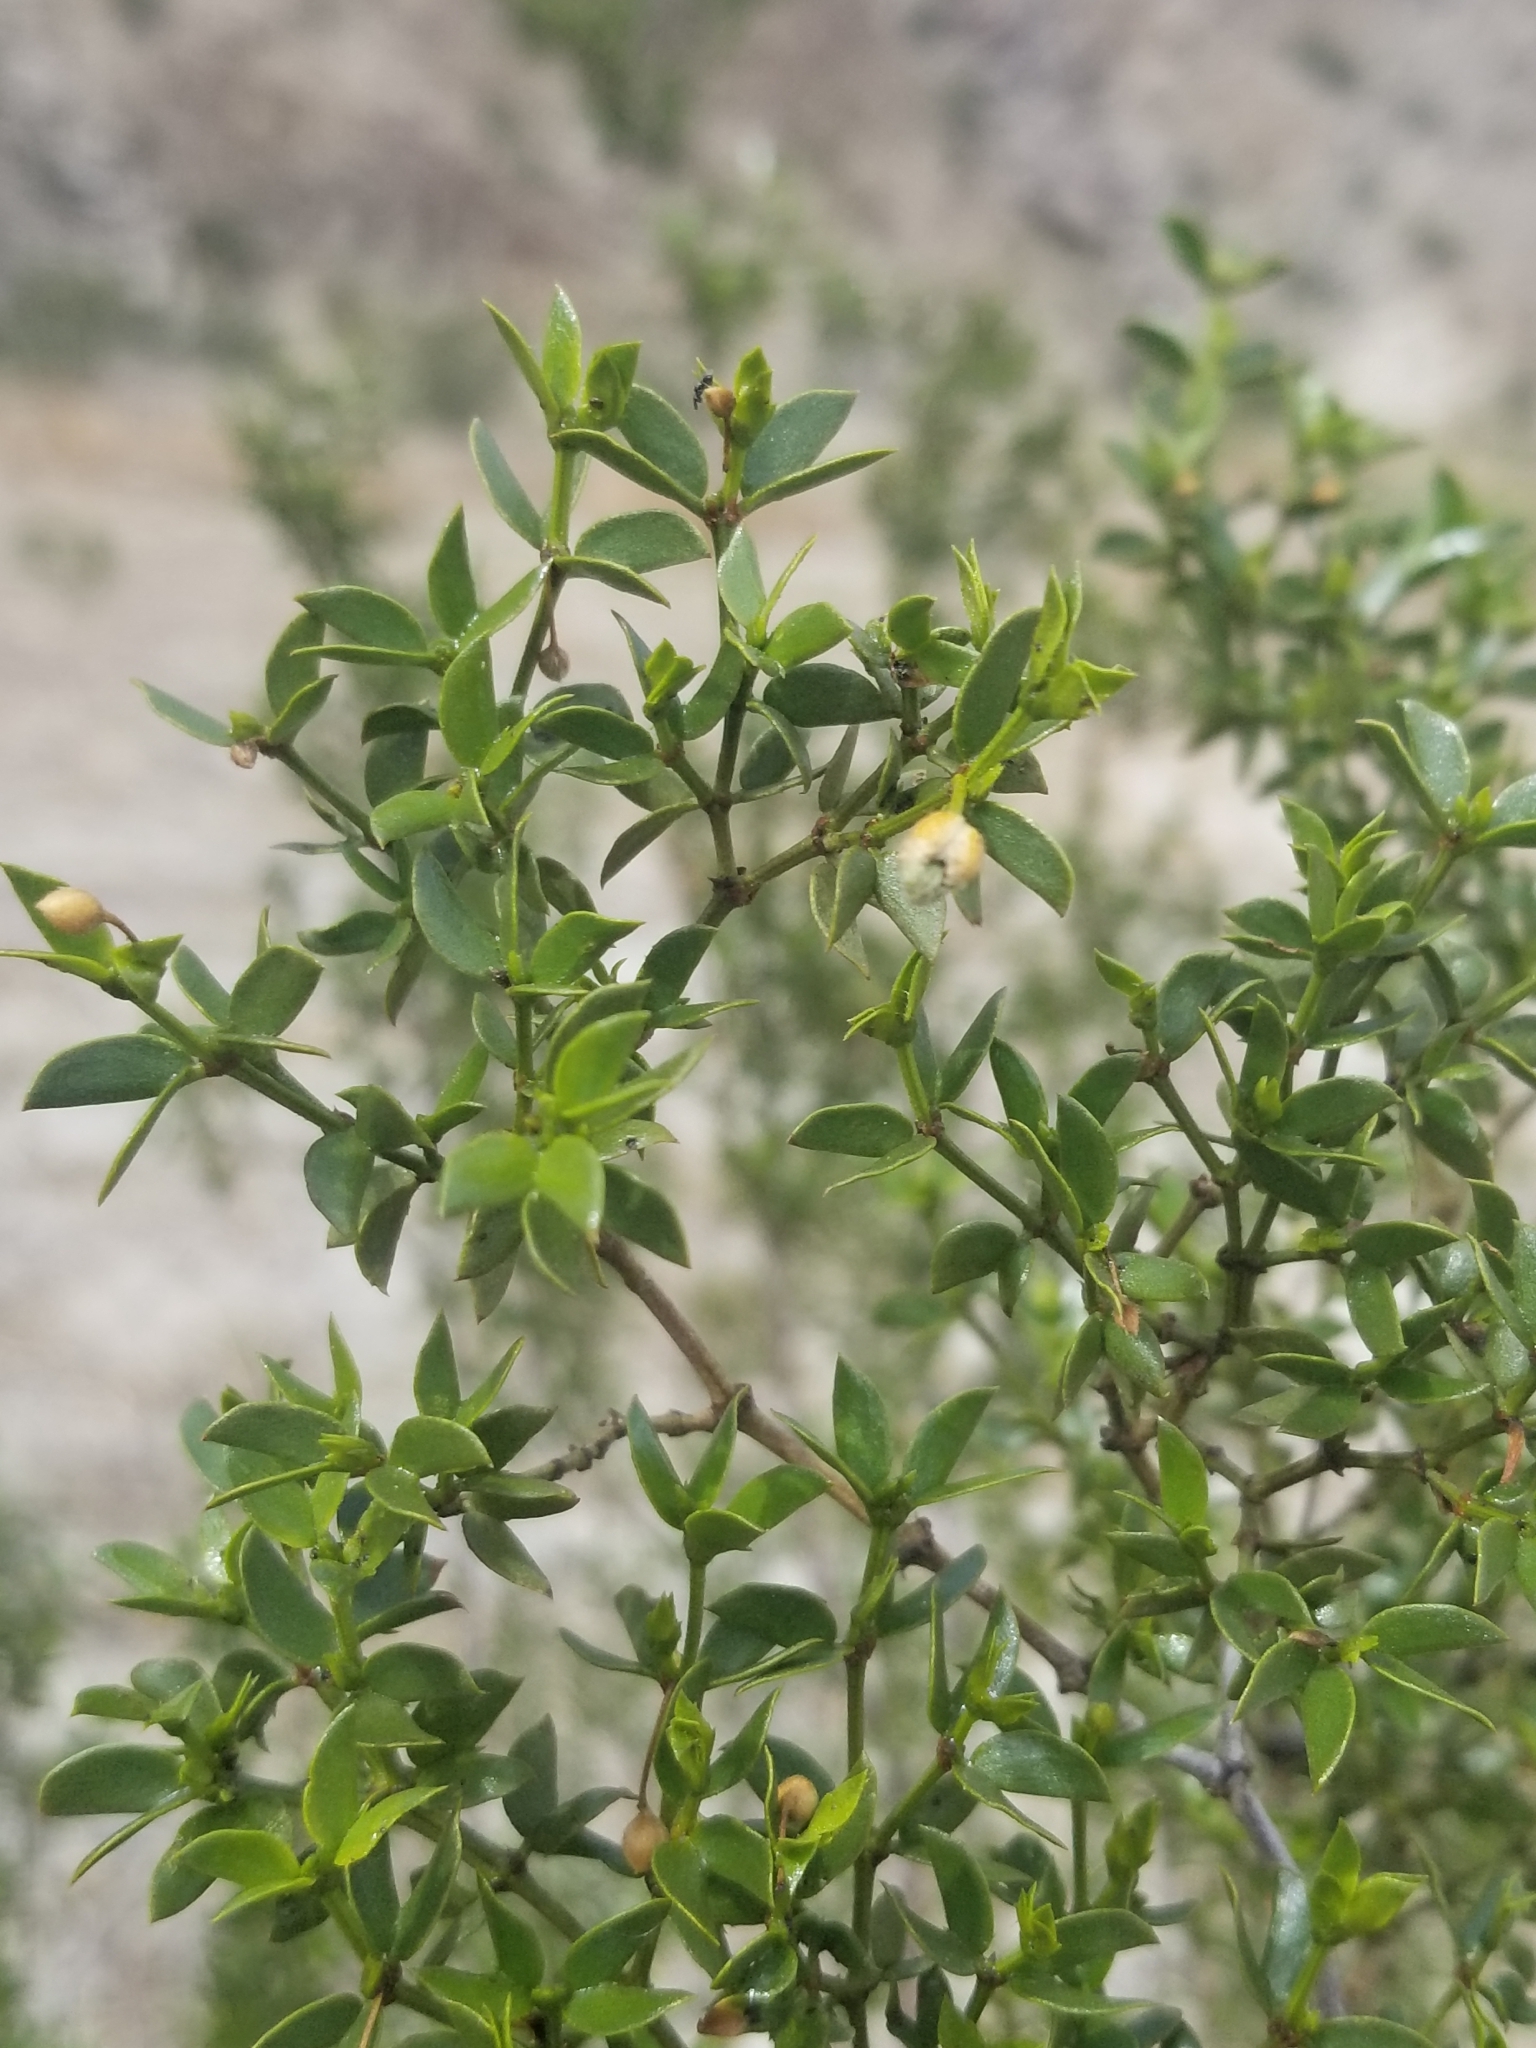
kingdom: Plantae
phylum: Tracheophyta
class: Magnoliopsida
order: Zygophyllales
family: Zygophyllaceae
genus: Larrea
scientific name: Larrea tridentata
